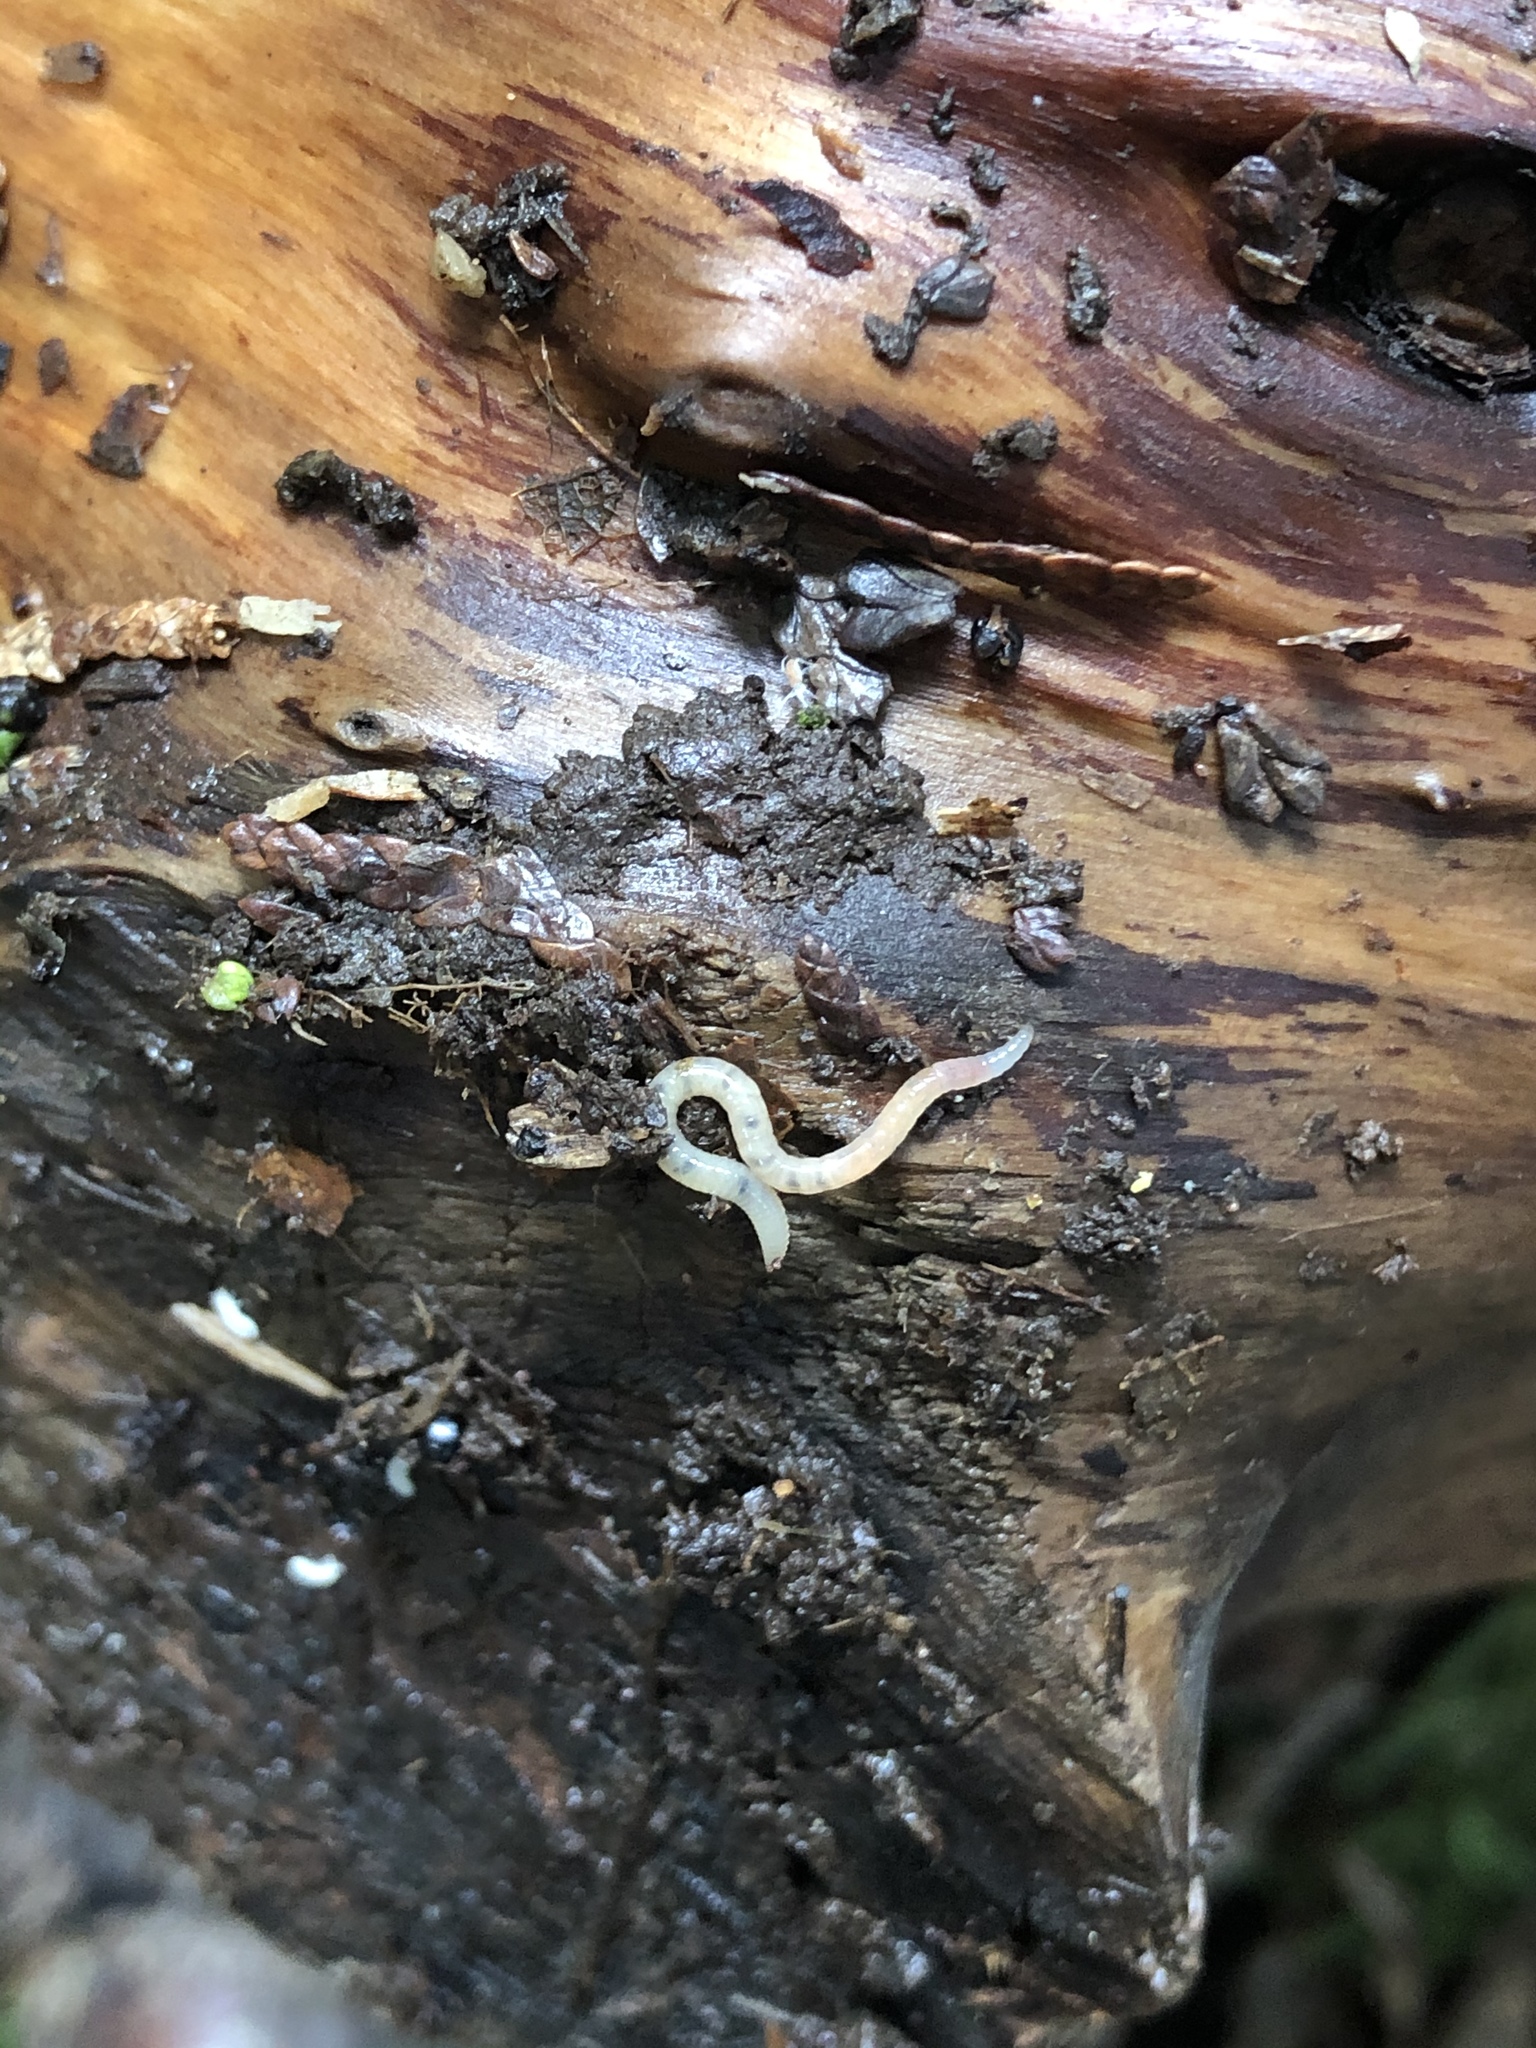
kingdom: Animalia
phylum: Annelida
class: Clitellata
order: Crassiclitellata
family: Lumbricidae
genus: Lumbricus
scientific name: Lumbricus terrestris
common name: Common earthworm
